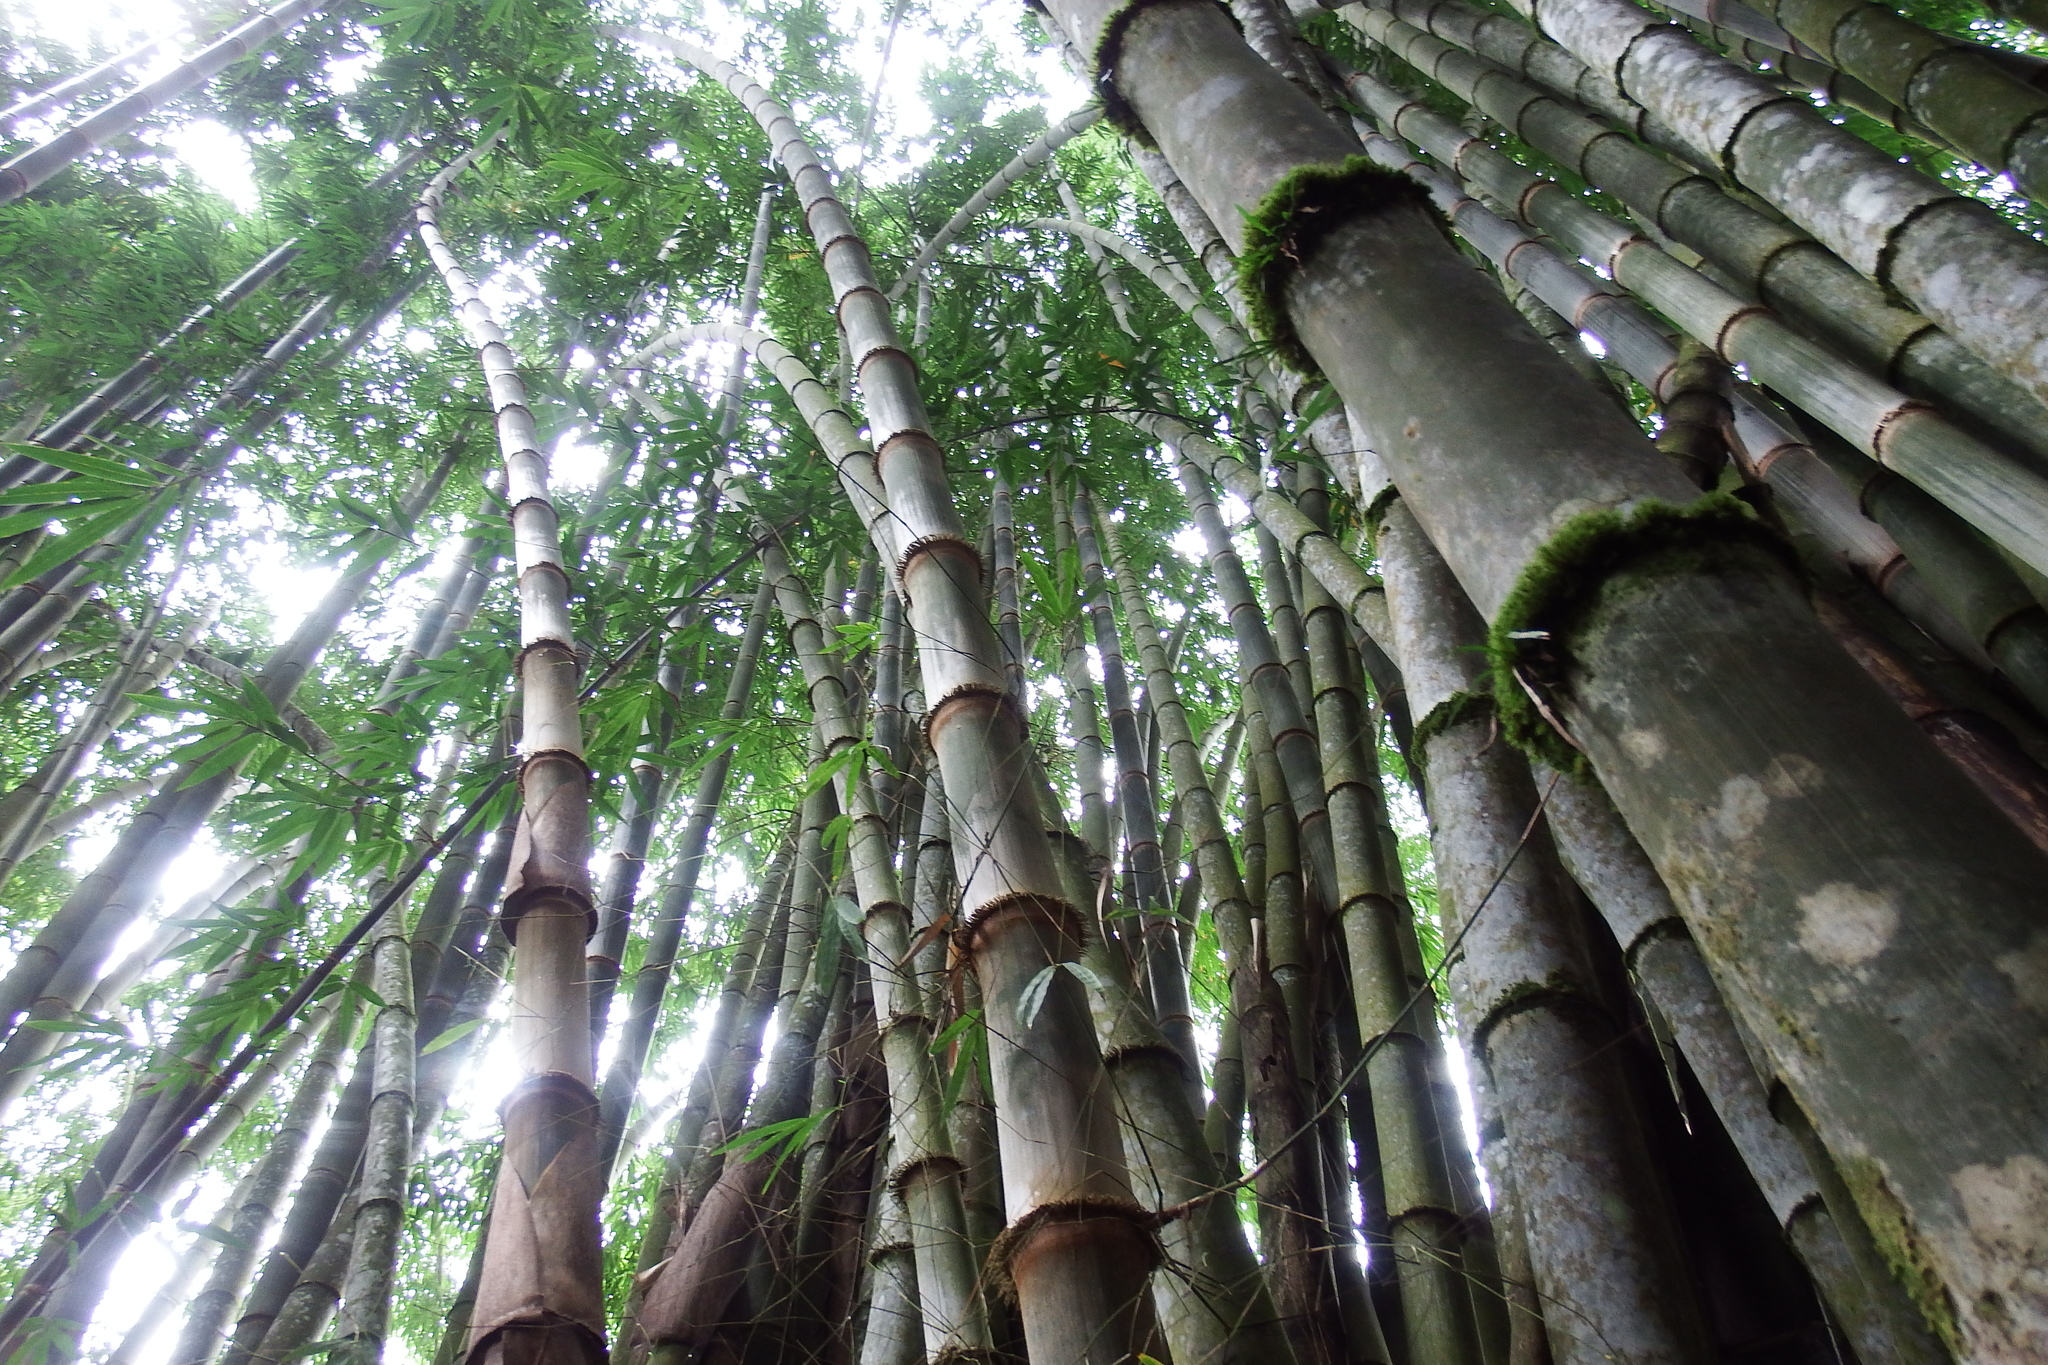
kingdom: Plantae
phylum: Tracheophyta
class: Liliopsida
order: Poales
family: Poaceae
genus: Dendrocalamus
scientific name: Dendrocalamus asper
